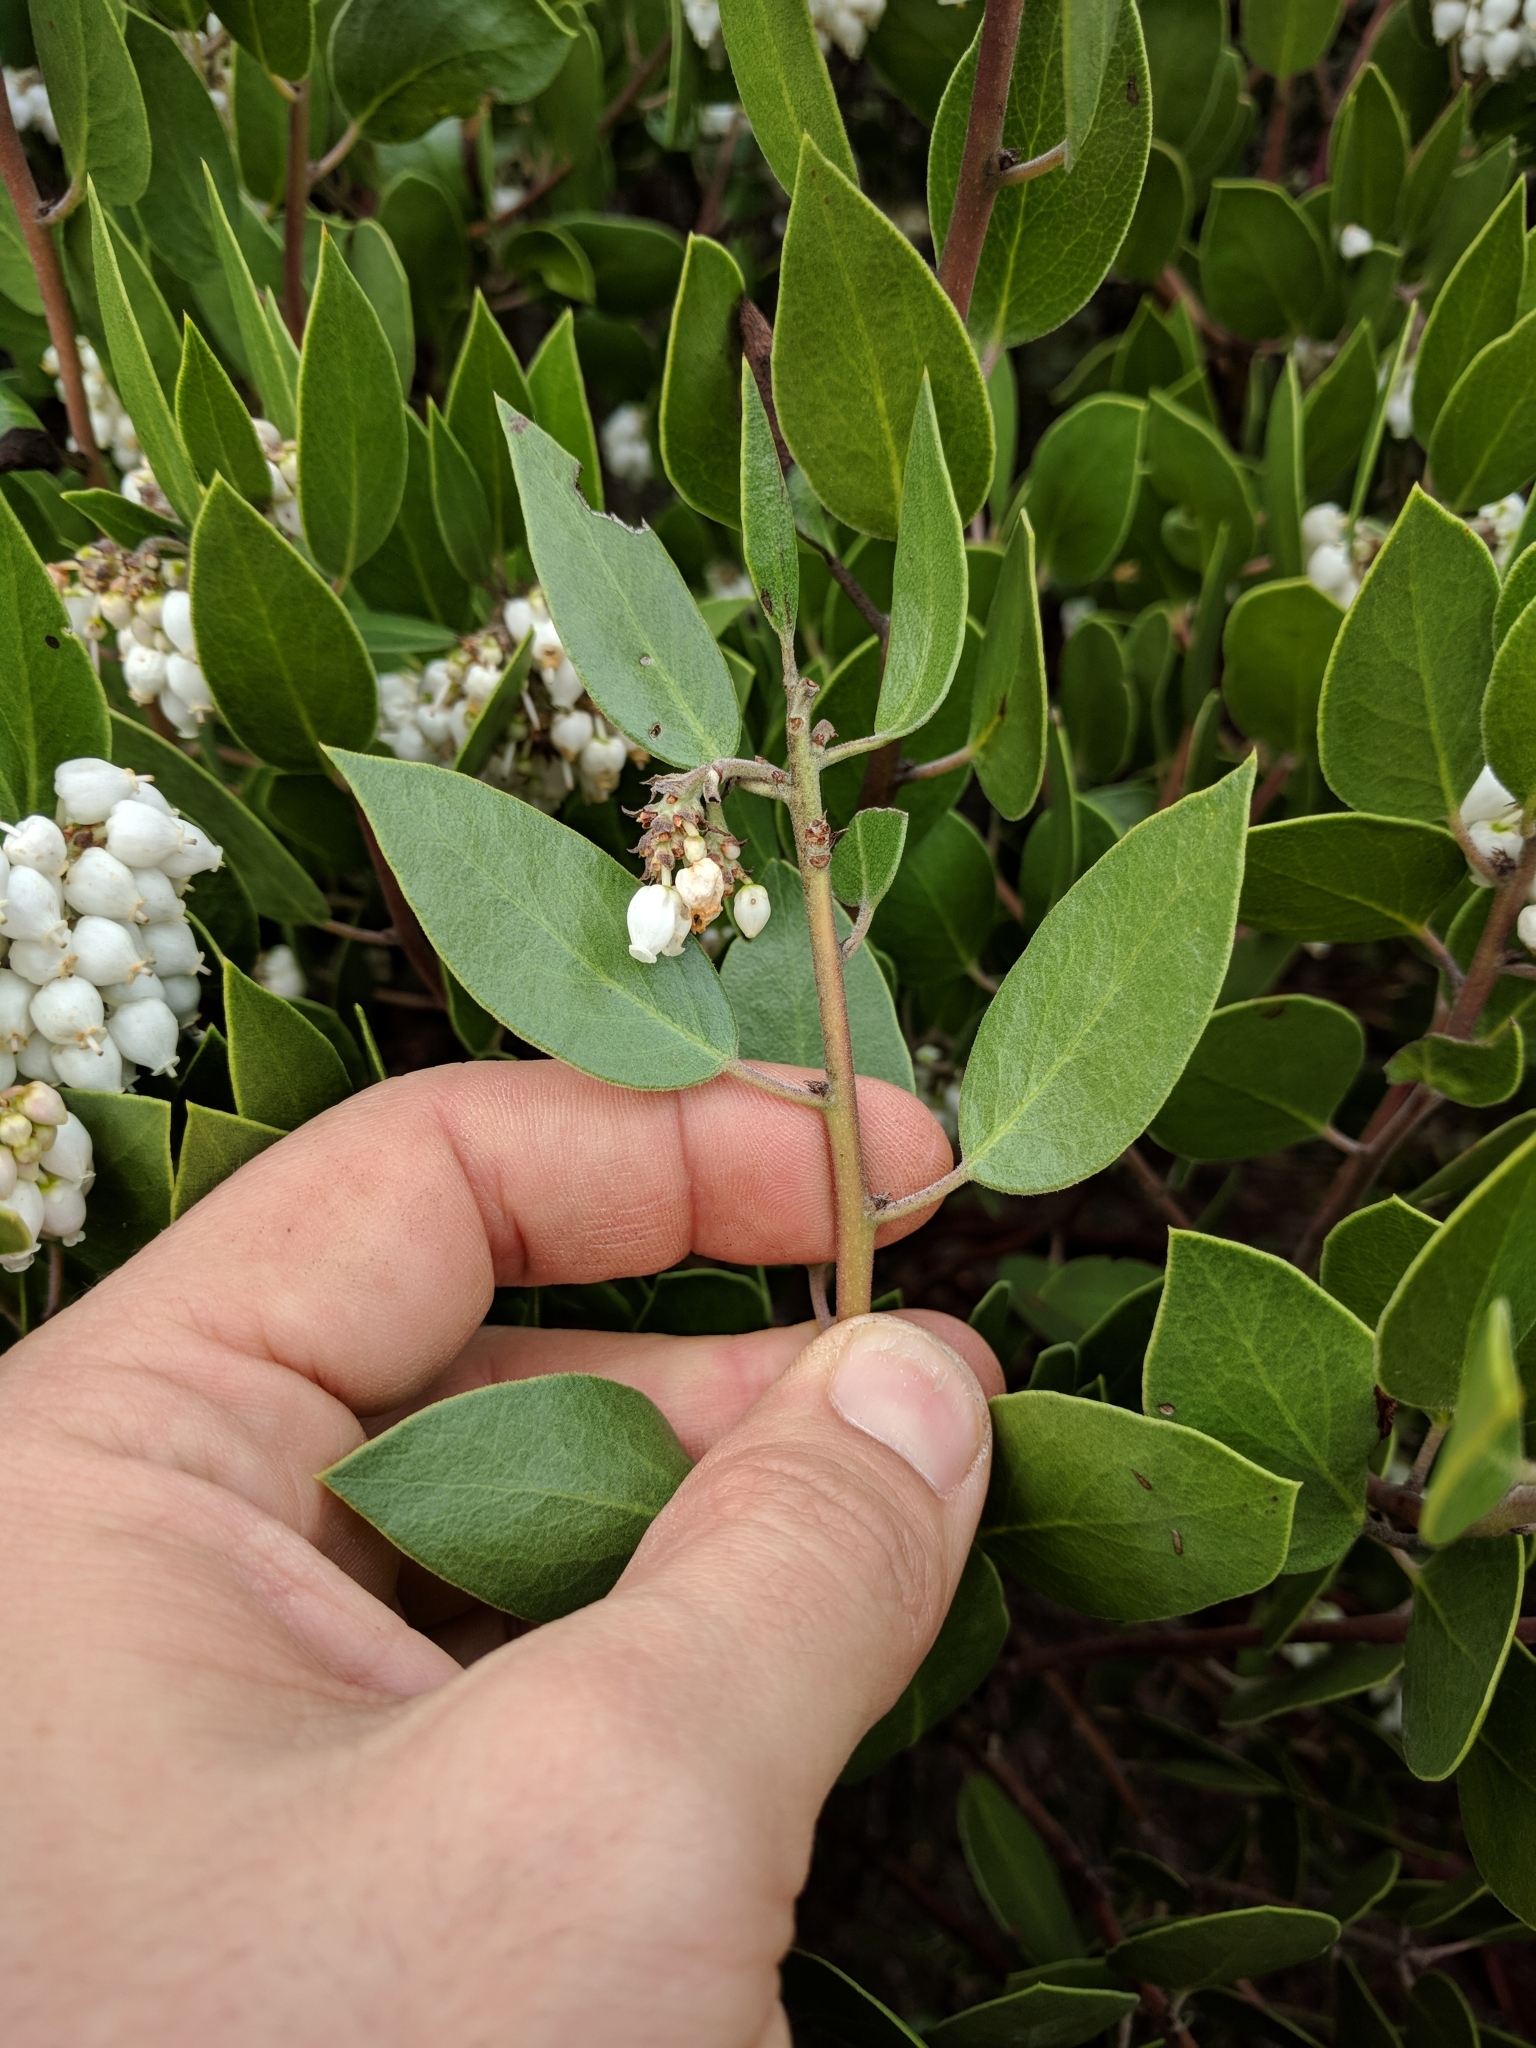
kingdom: Plantae
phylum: Tracheophyta
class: Magnoliopsida
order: Ericales
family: Ericaceae
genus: Arctostaphylos
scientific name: Arctostaphylos manzanita
